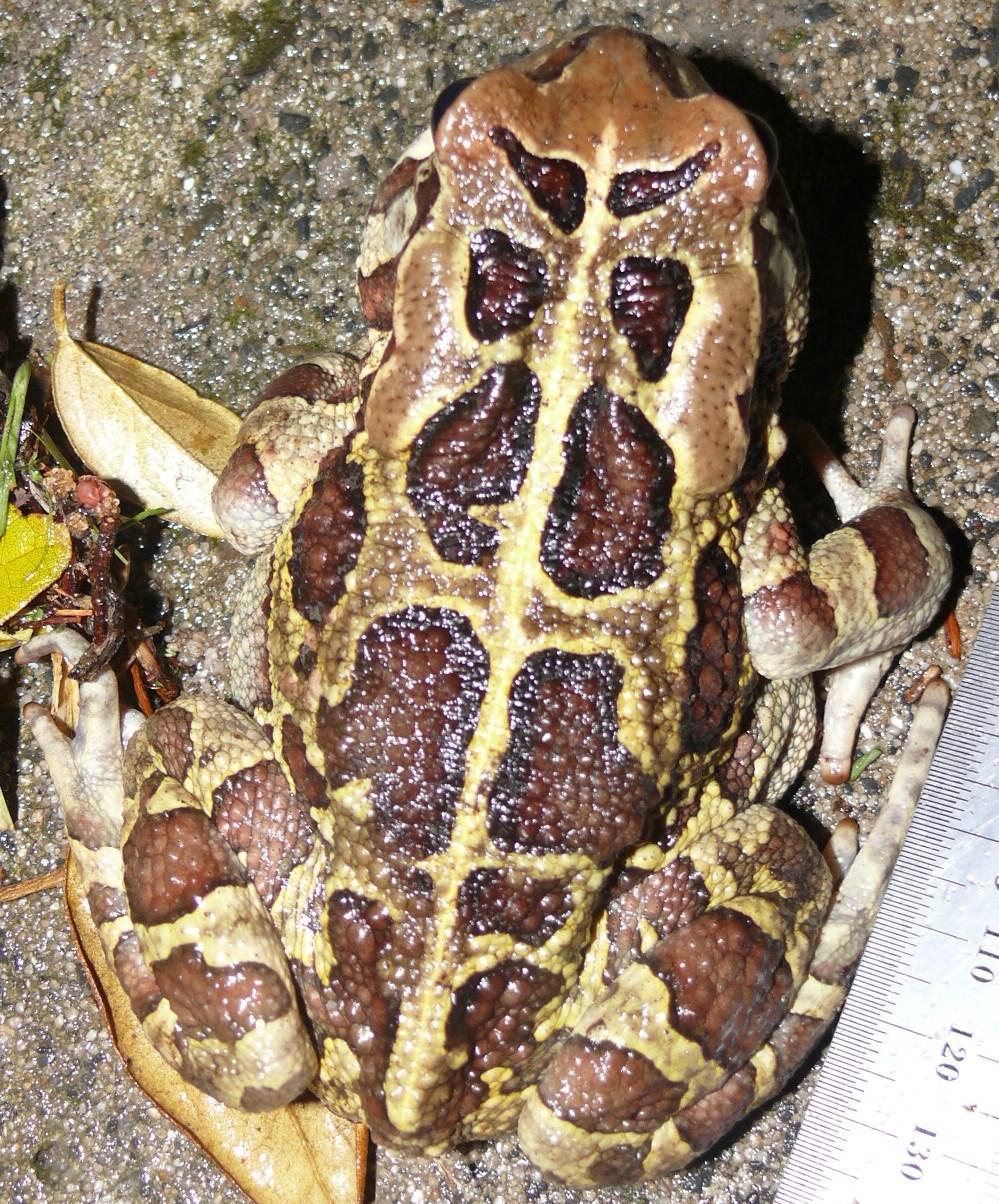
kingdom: Animalia
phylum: Chordata
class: Amphibia
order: Anura
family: Bufonidae
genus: Sclerophrys
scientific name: Sclerophrys pantherina
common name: Panther toad
